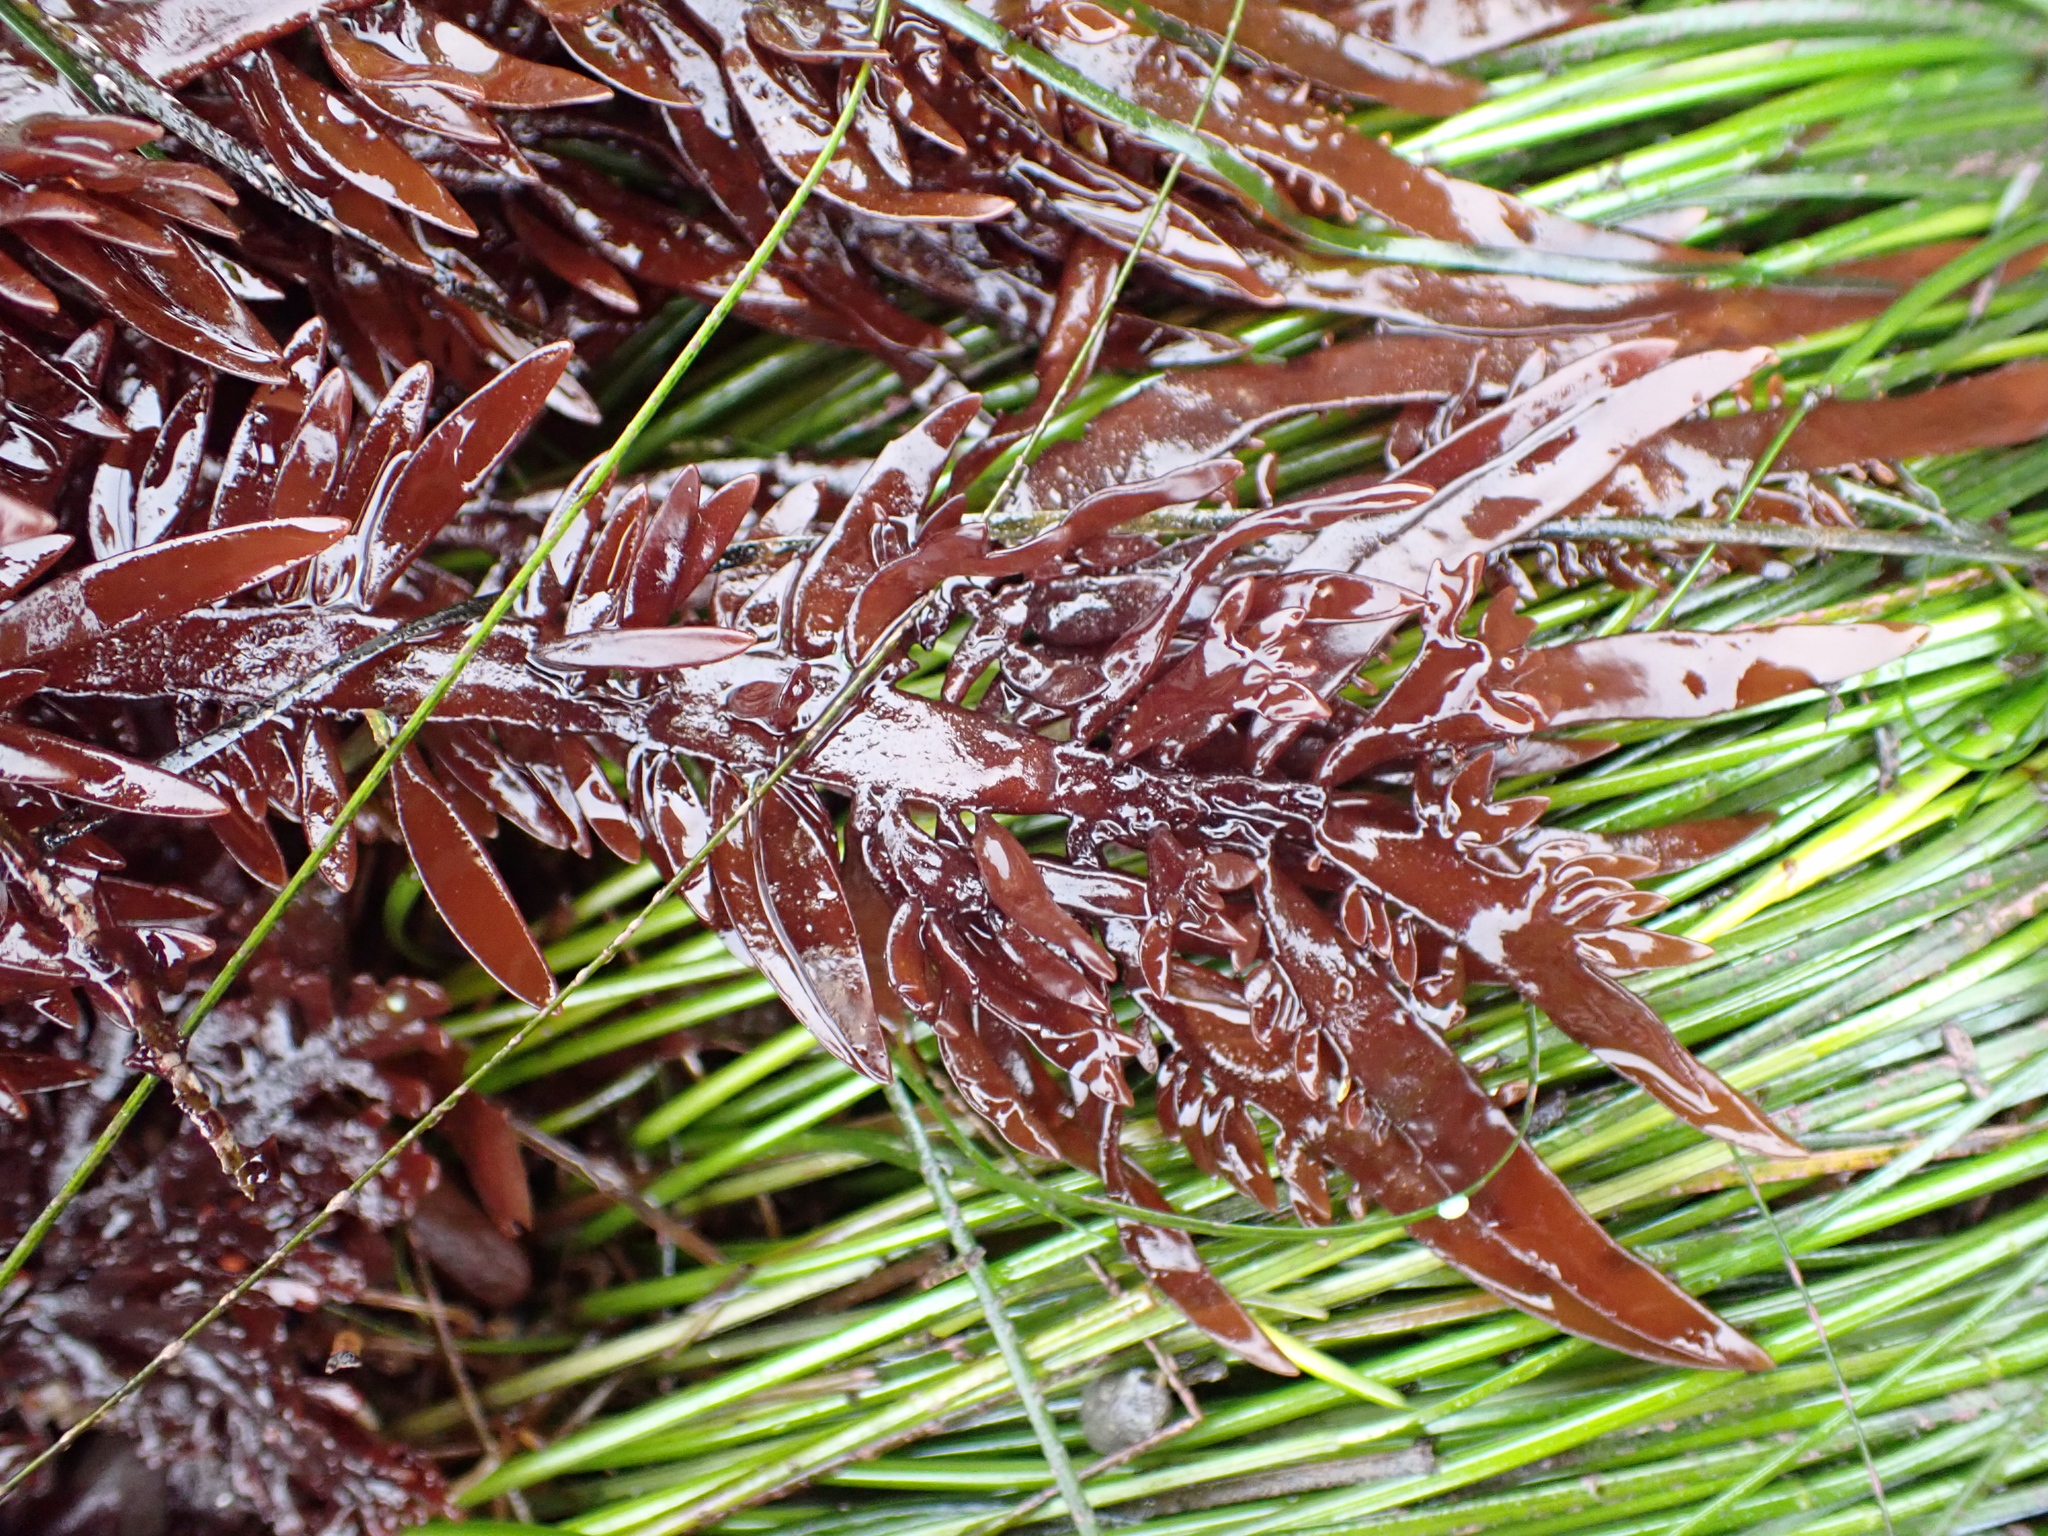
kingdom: Plantae
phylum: Rhodophyta
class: Florideophyceae
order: Halymeniales
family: Halymeniaceae
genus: Grateloupia
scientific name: Grateloupia Prionitis lanceolata
